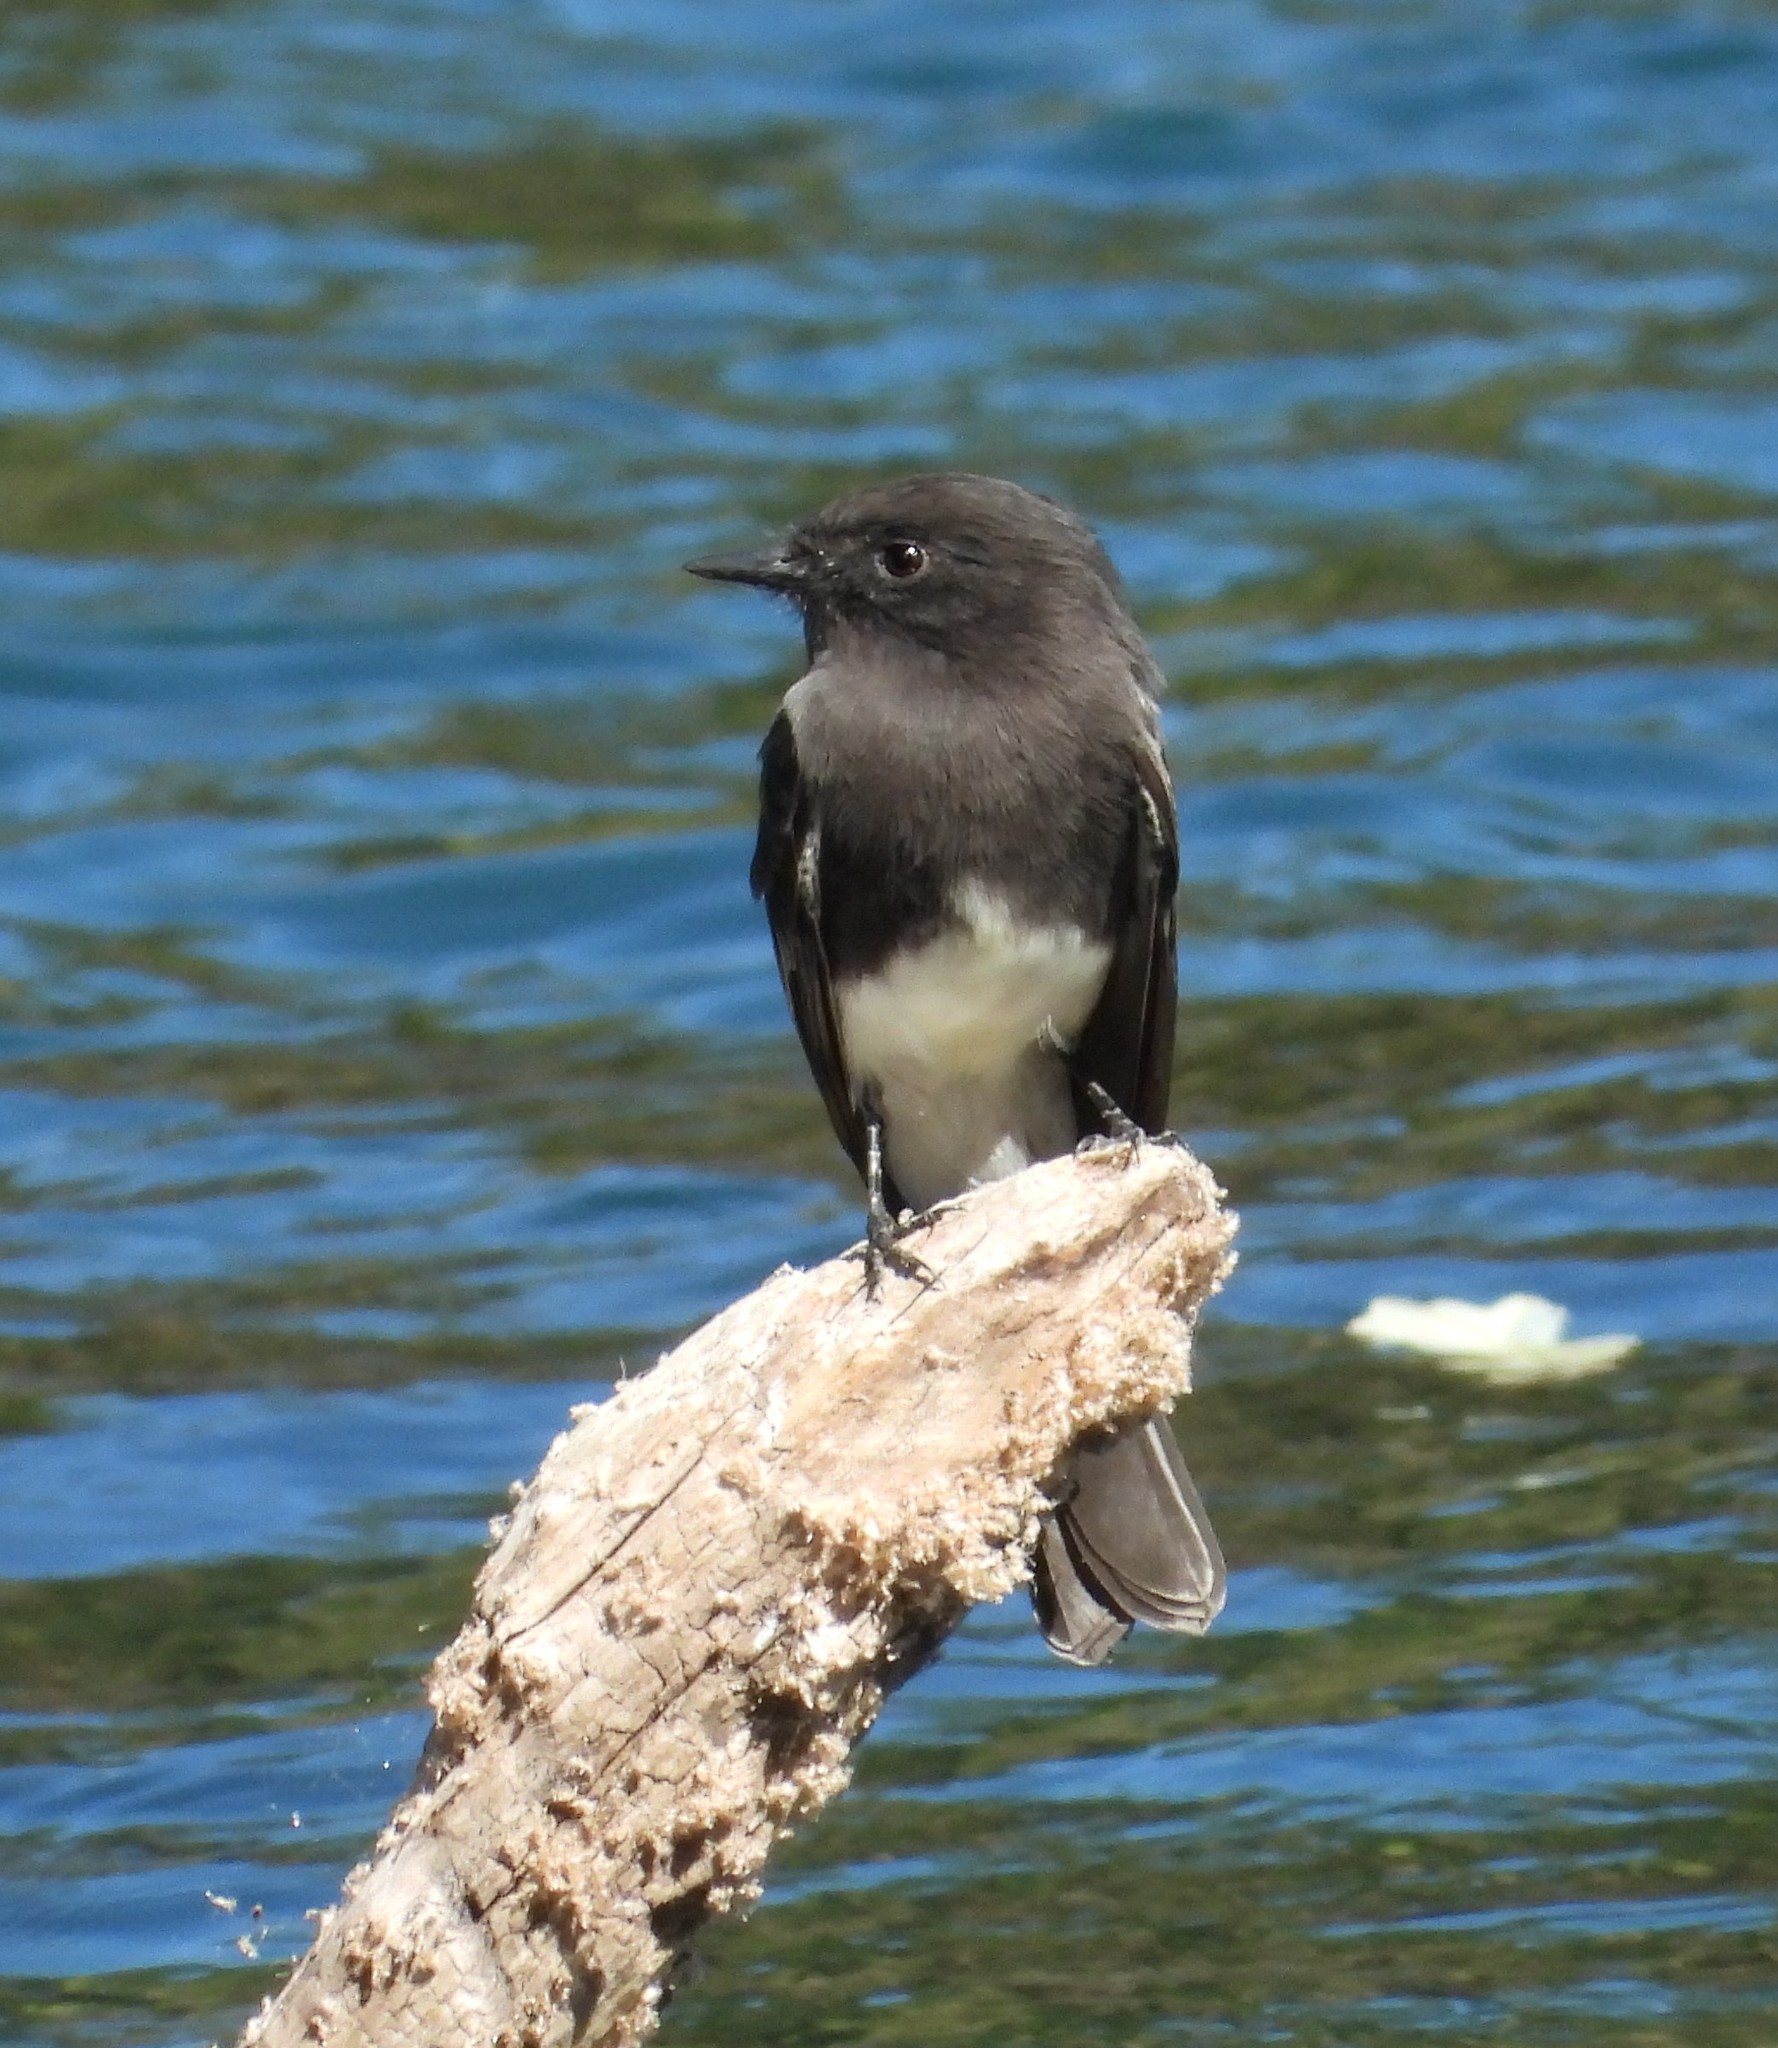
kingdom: Animalia
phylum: Chordata
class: Aves
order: Passeriformes
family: Tyrannidae
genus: Sayornis
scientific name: Sayornis nigricans
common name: Black phoebe
